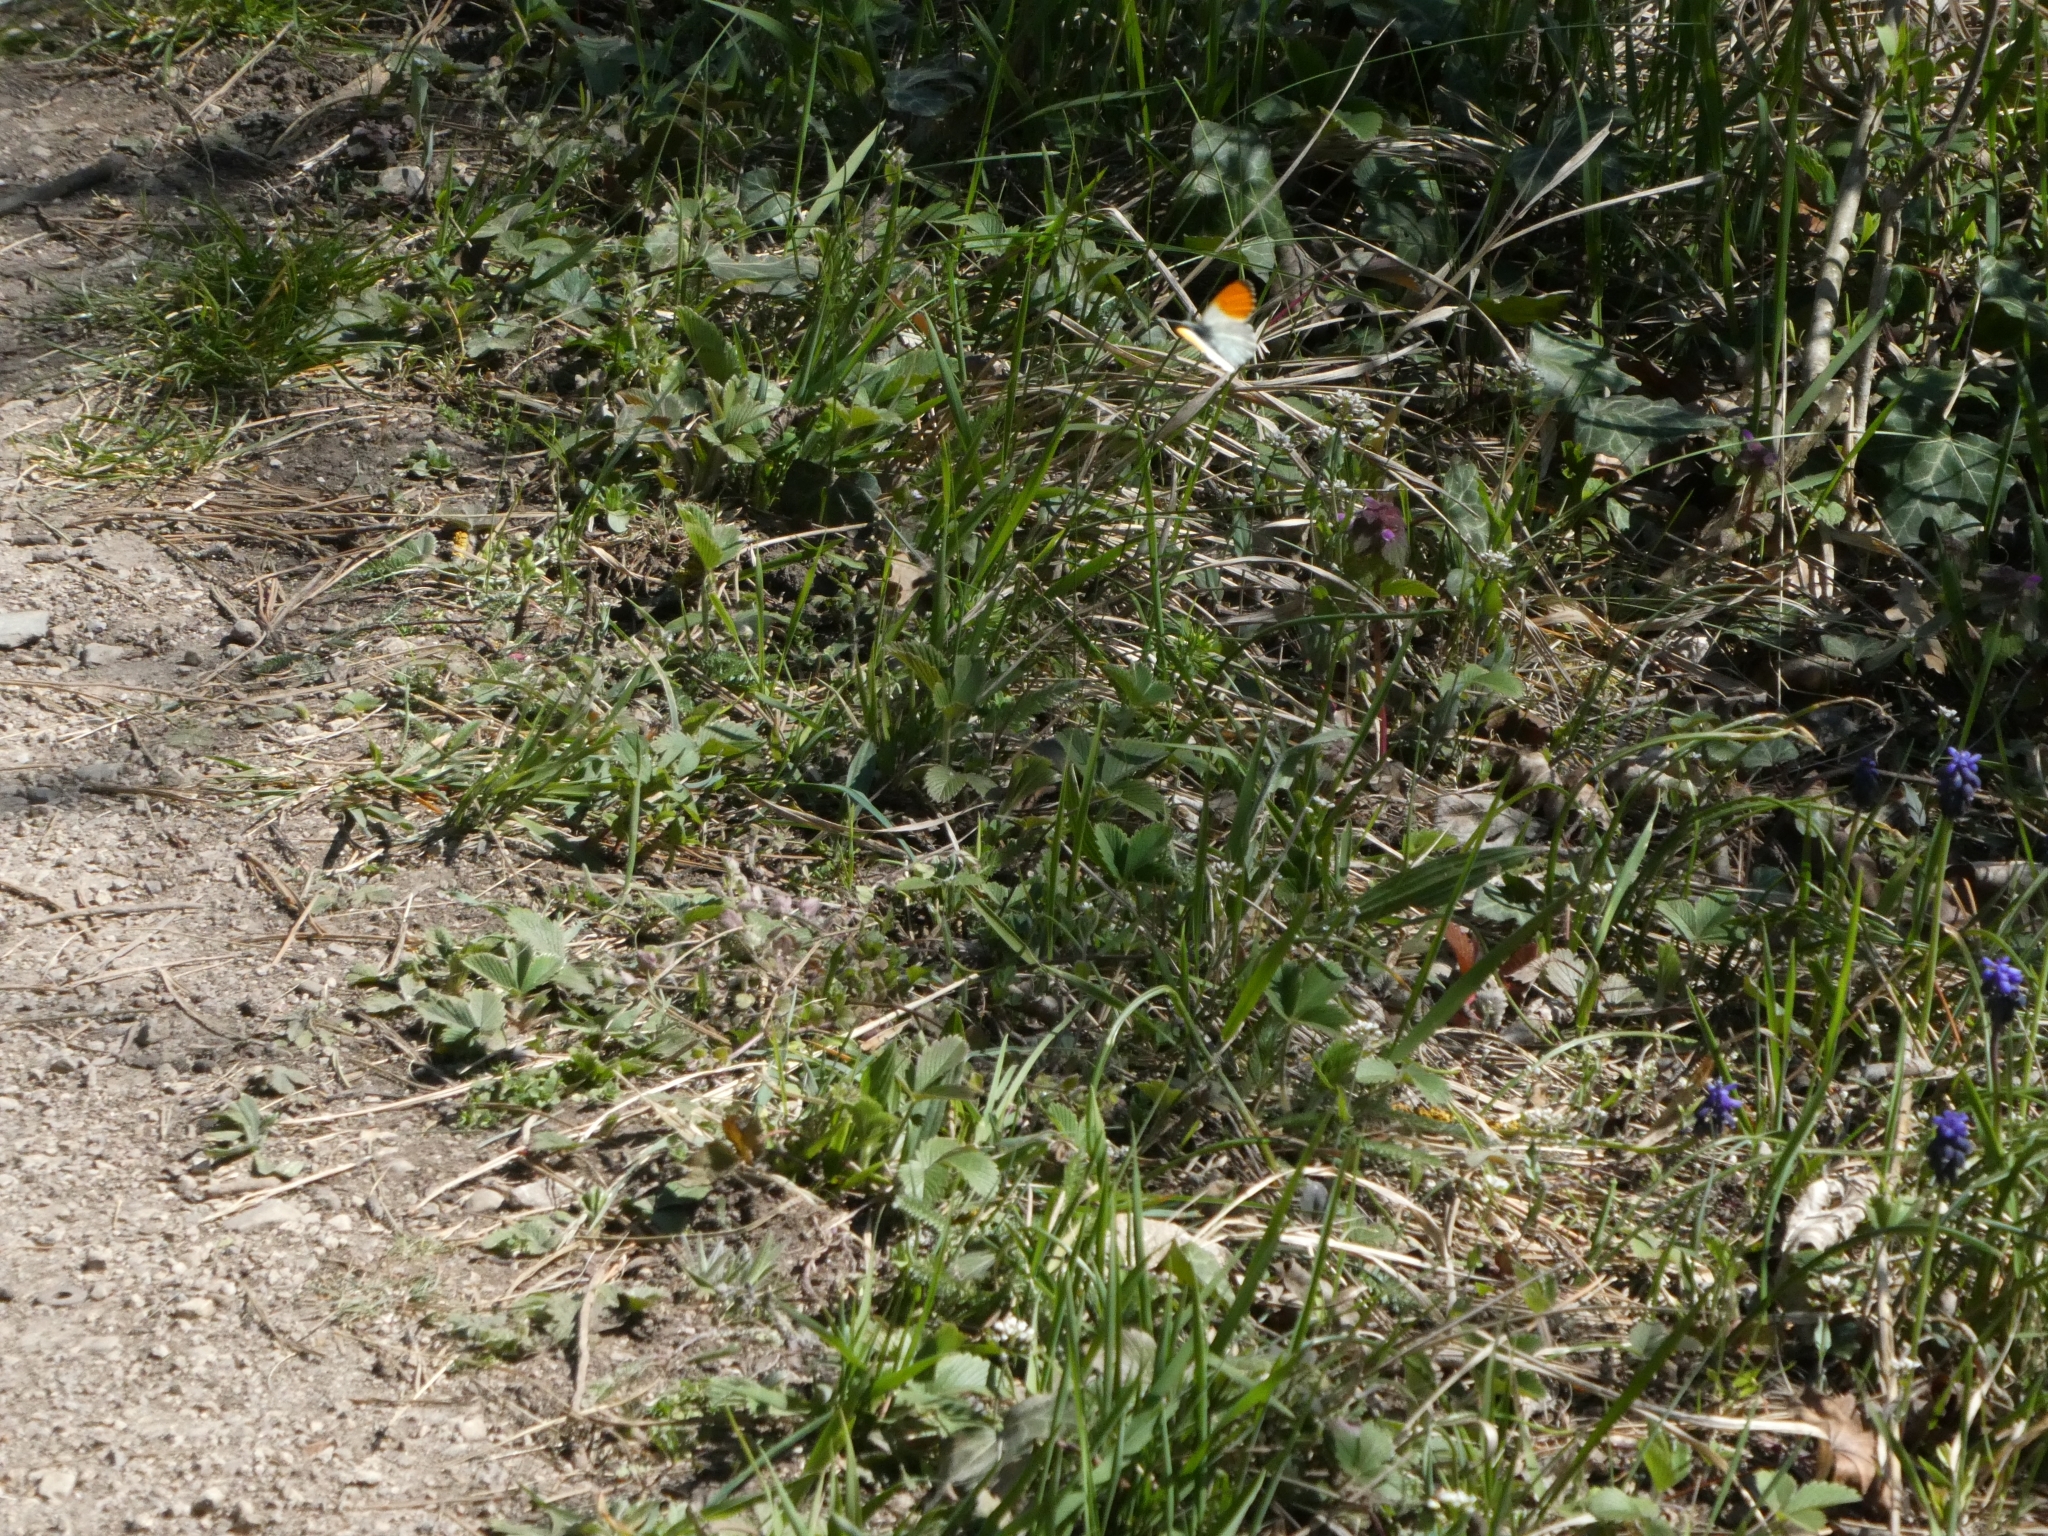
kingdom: Animalia
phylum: Arthropoda
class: Insecta
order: Lepidoptera
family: Pieridae
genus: Anthocharis
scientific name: Anthocharis cardamines
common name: Orange-tip
